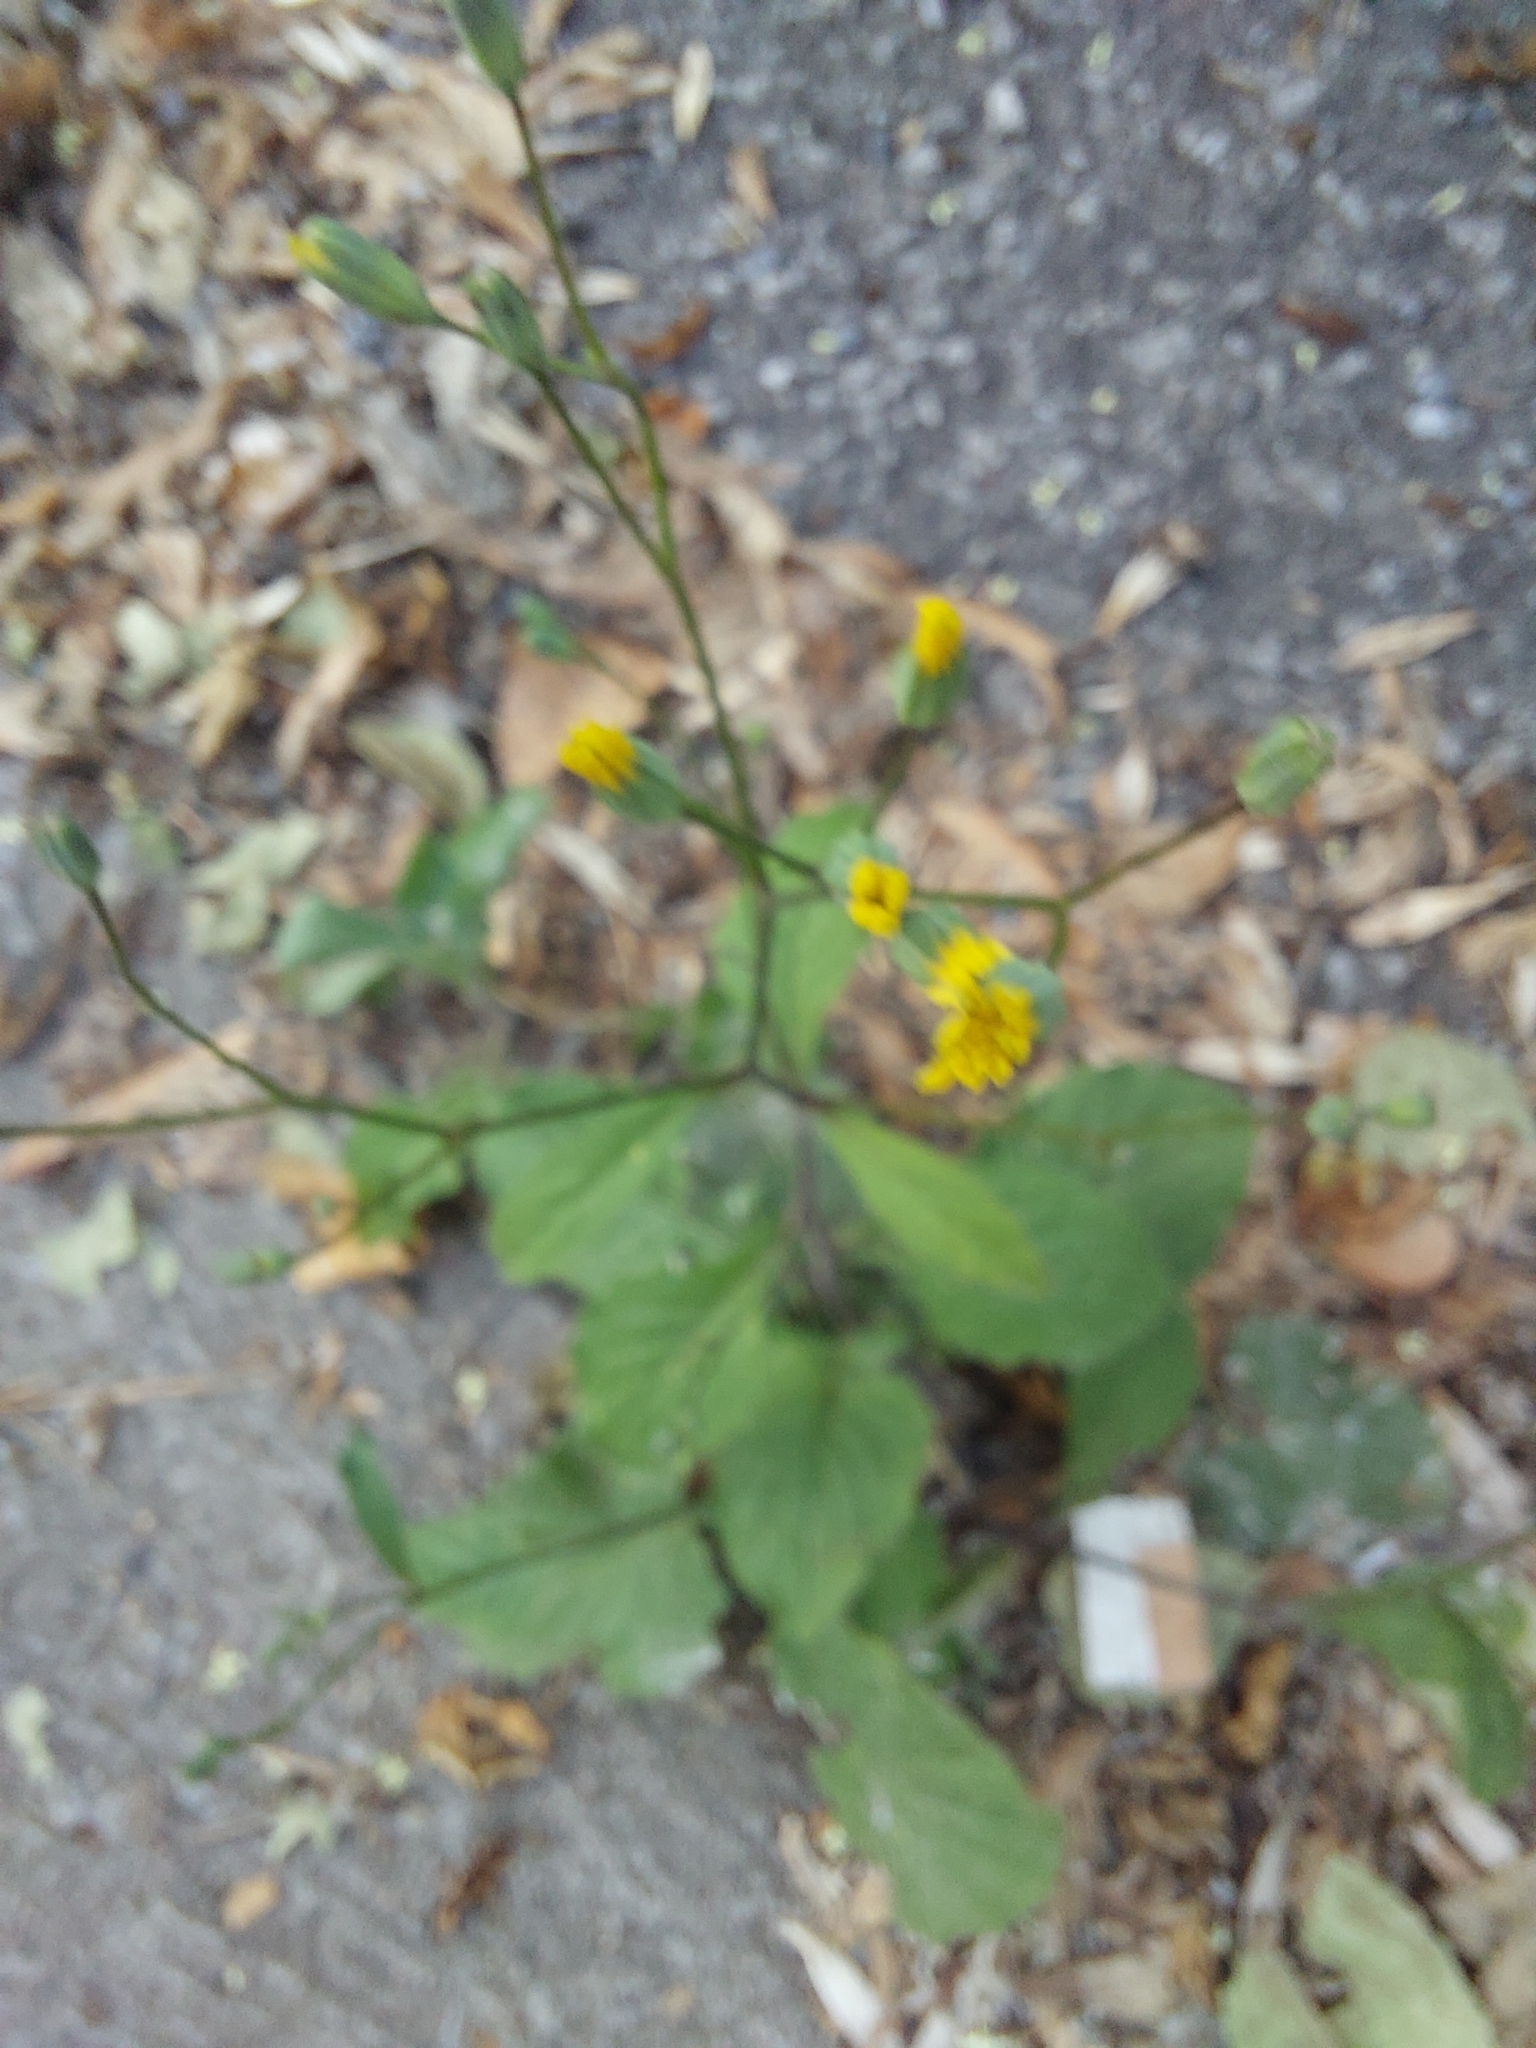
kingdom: Plantae
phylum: Tracheophyta
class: Magnoliopsida
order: Asterales
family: Asteraceae
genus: Lapsana
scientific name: Lapsana communis
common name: Nipplewort
